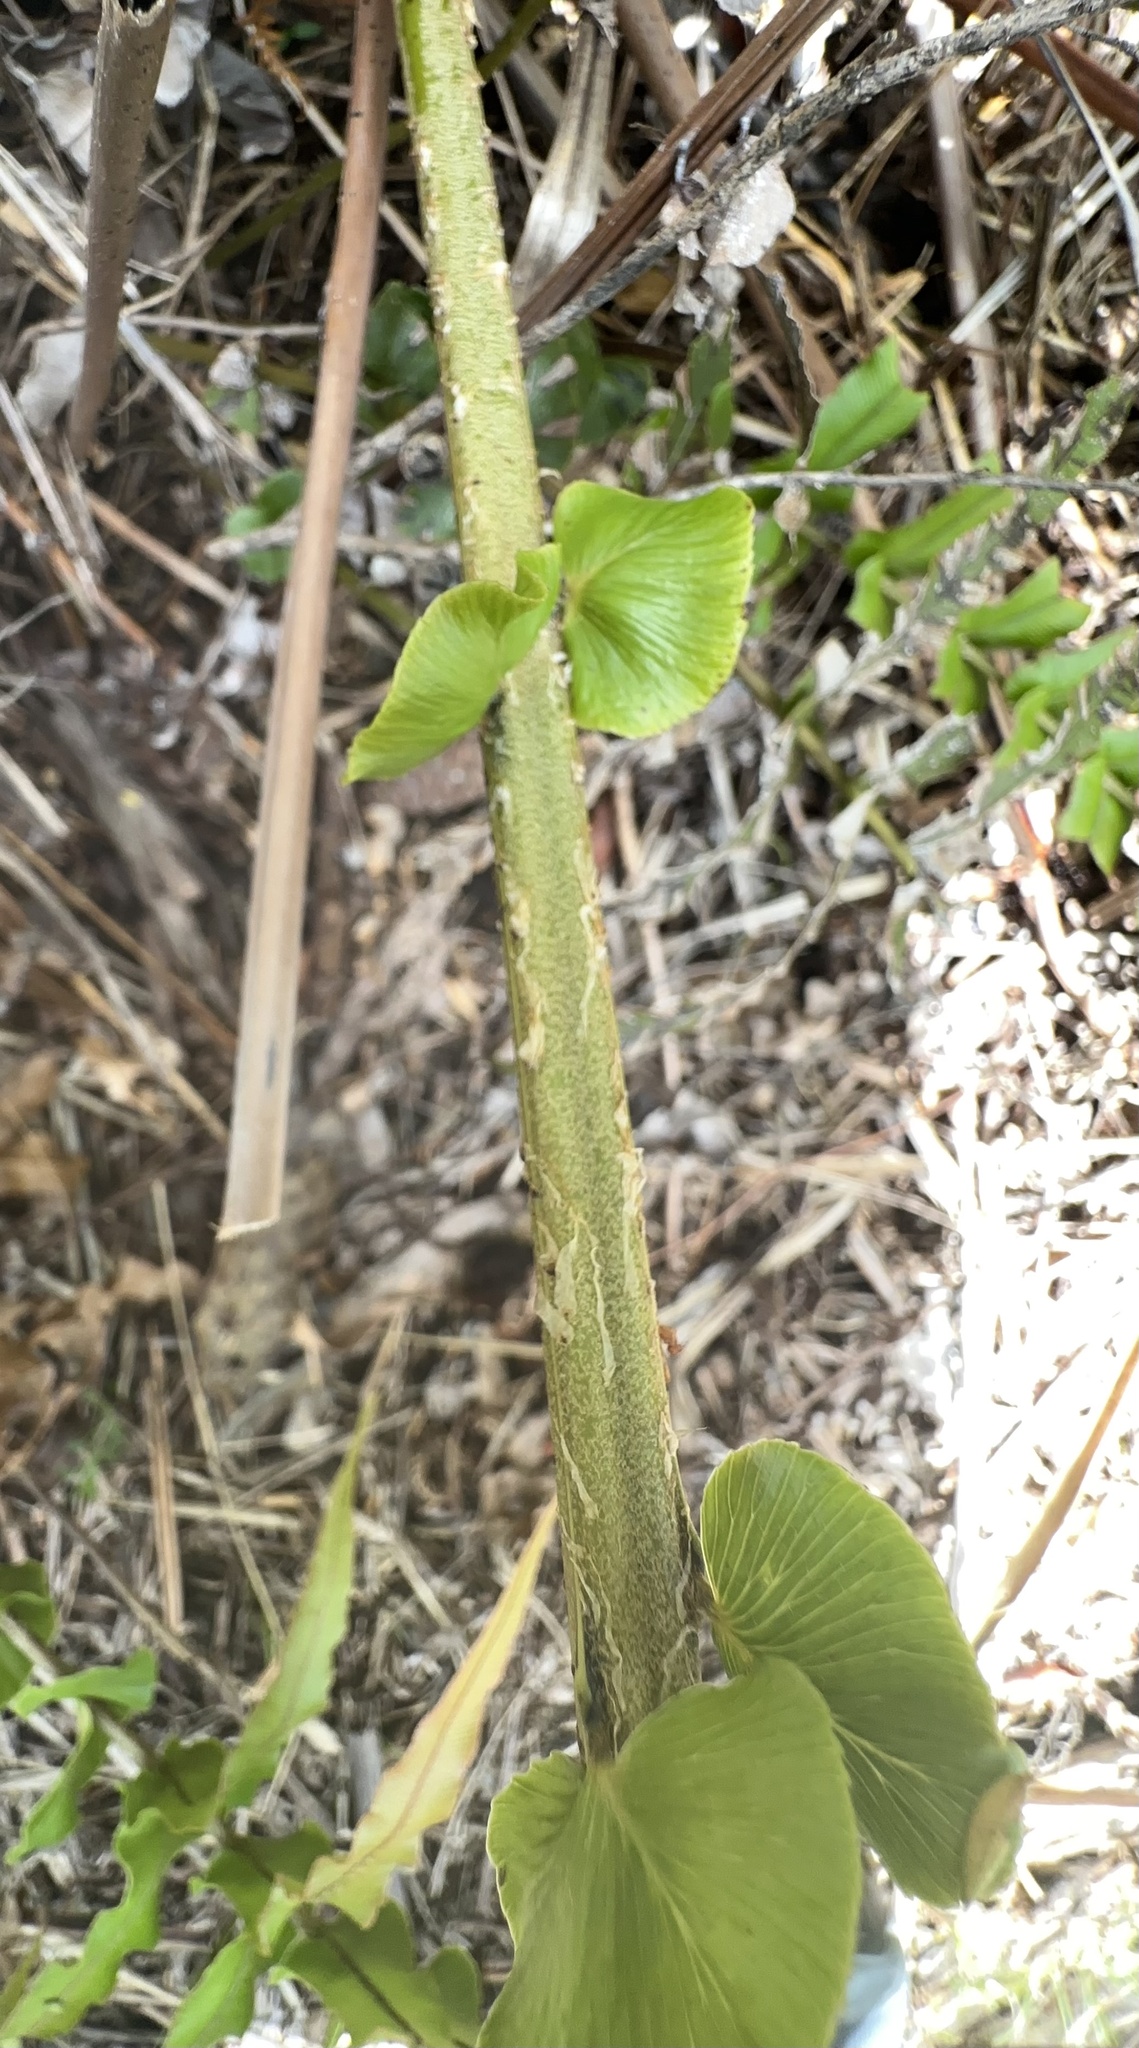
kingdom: Plantae
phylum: Tracheophyta
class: Polypodiopsida
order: Polypodiales
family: Blechnaceae
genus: Parablechnum
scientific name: Parablechnum novae-zelandiae
